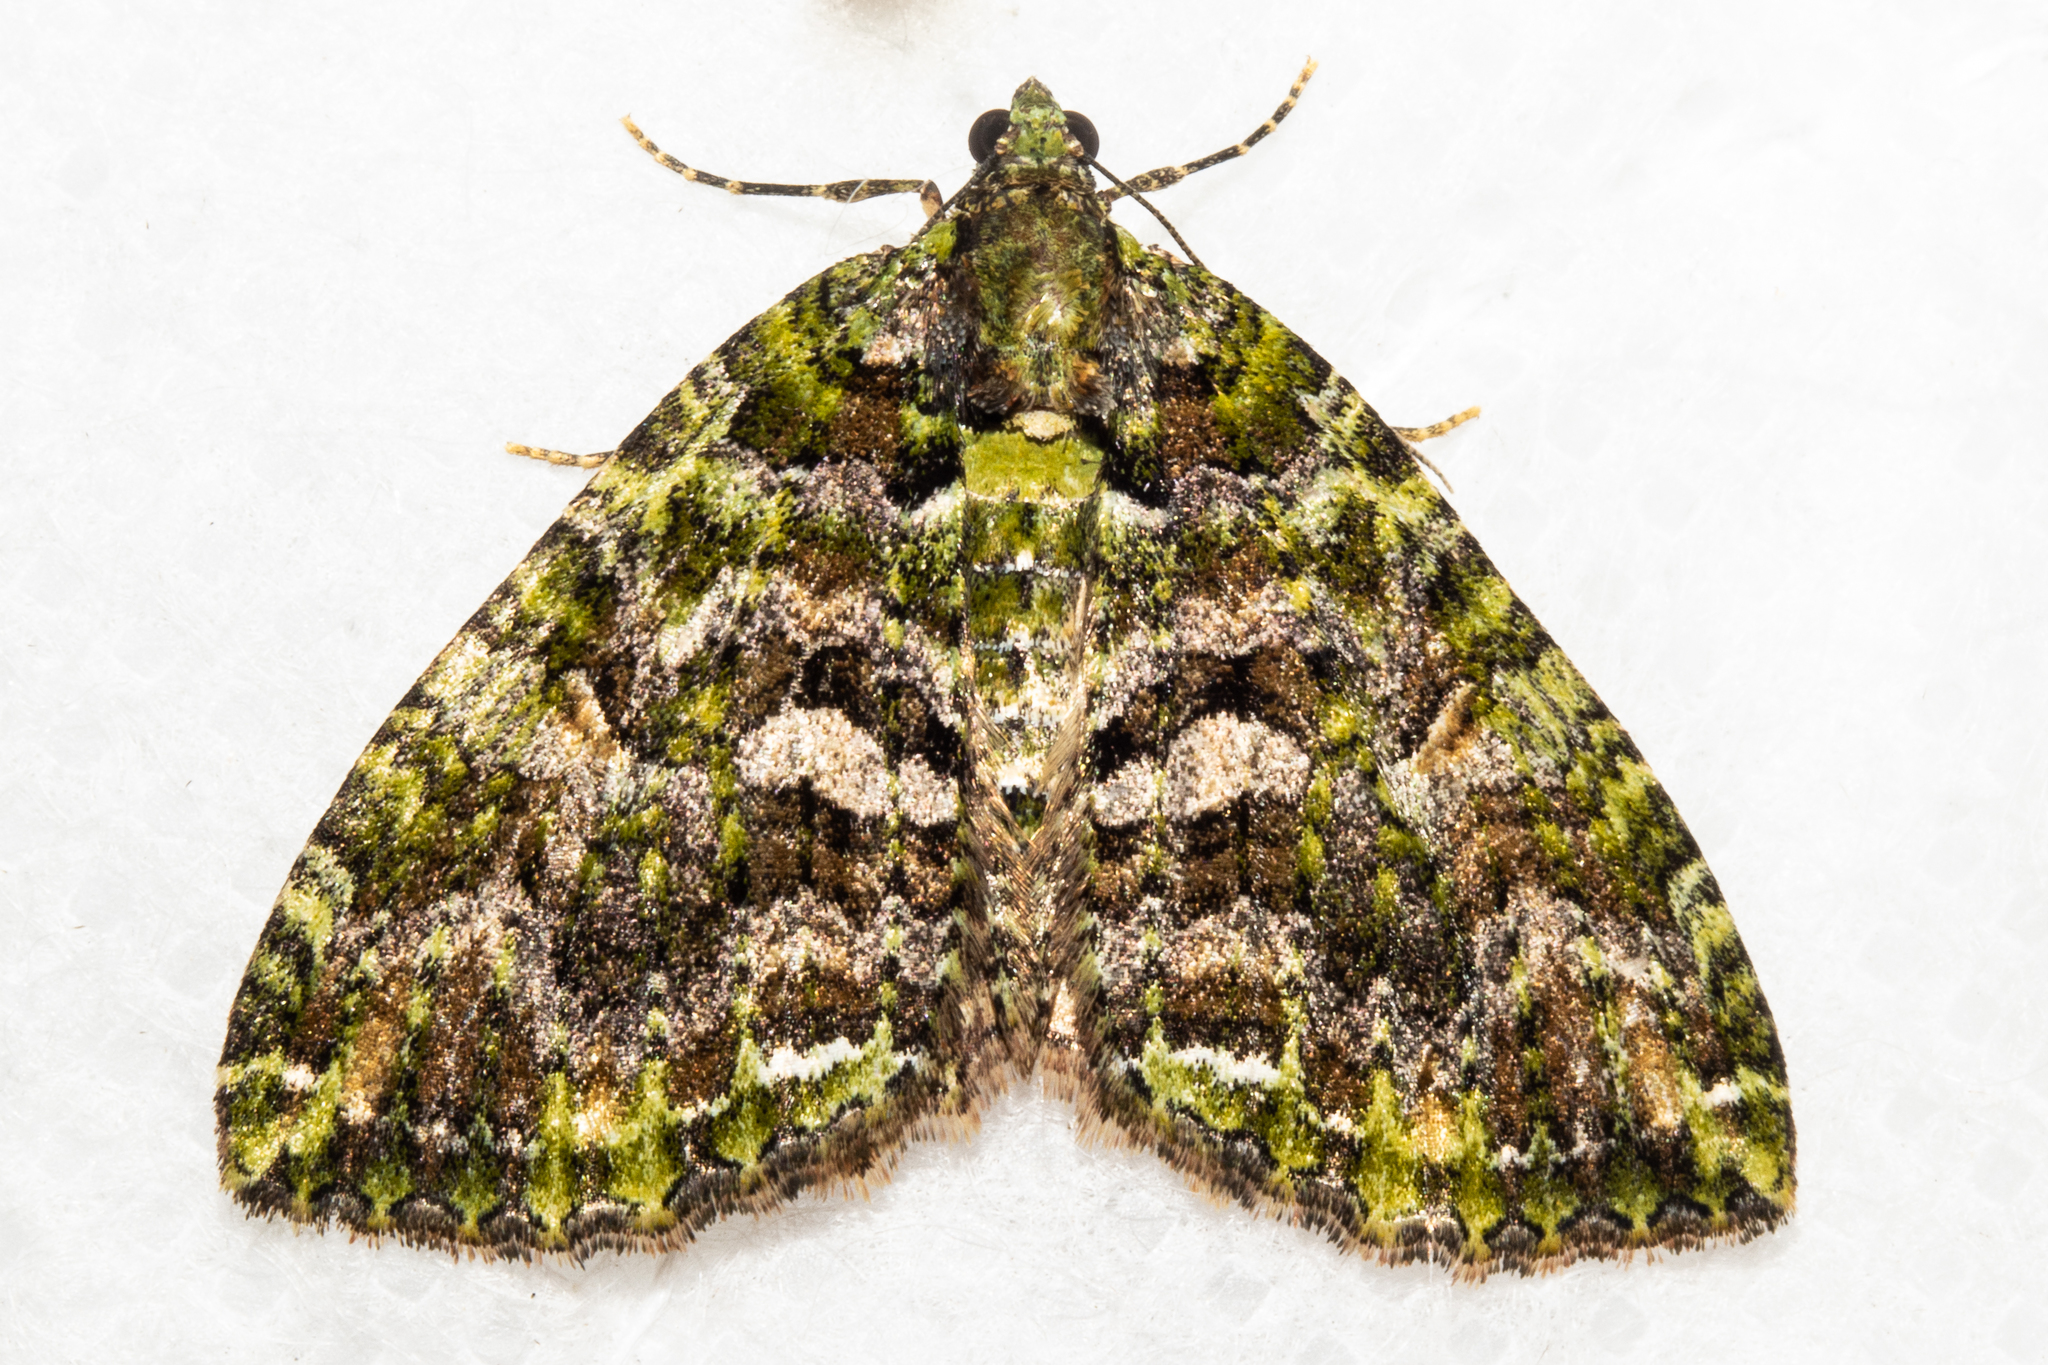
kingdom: Animalia
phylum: Arthropoda
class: Insecta
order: Lepidoptera
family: Geometridae
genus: Austrocidaria
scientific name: Austrocidaria similata
